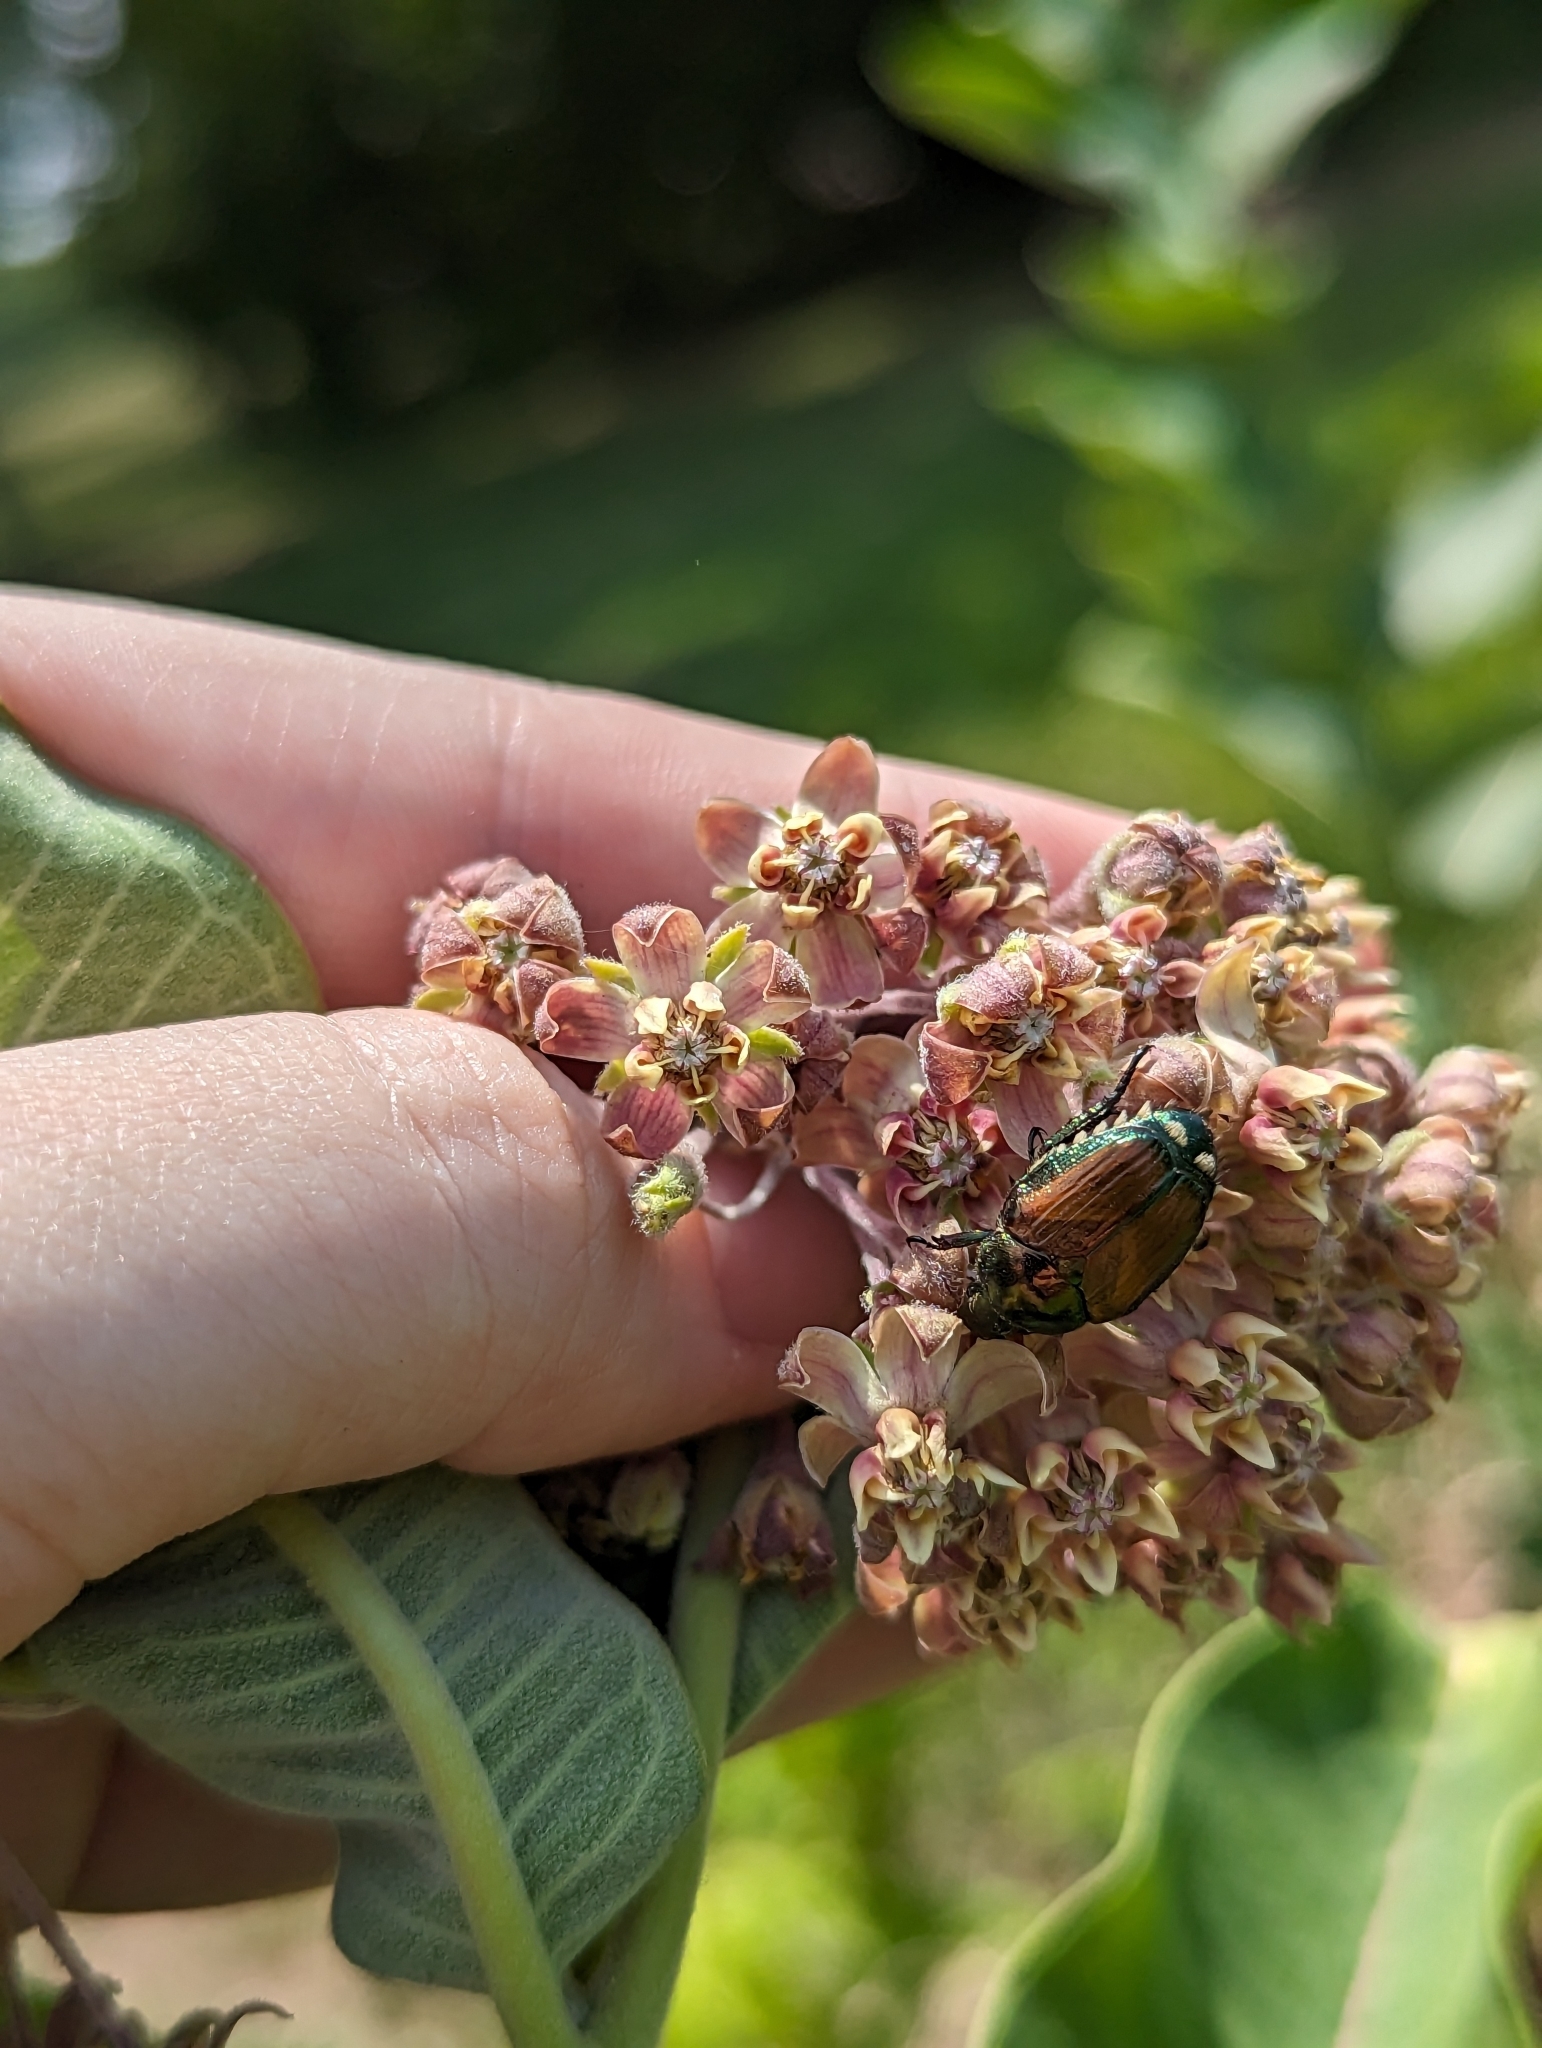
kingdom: Animalia
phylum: Arthropoda
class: Insecta
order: Coleoptera
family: Scarabaeidae
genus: Popillia
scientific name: Popillia japonica
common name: Japanese beetle
